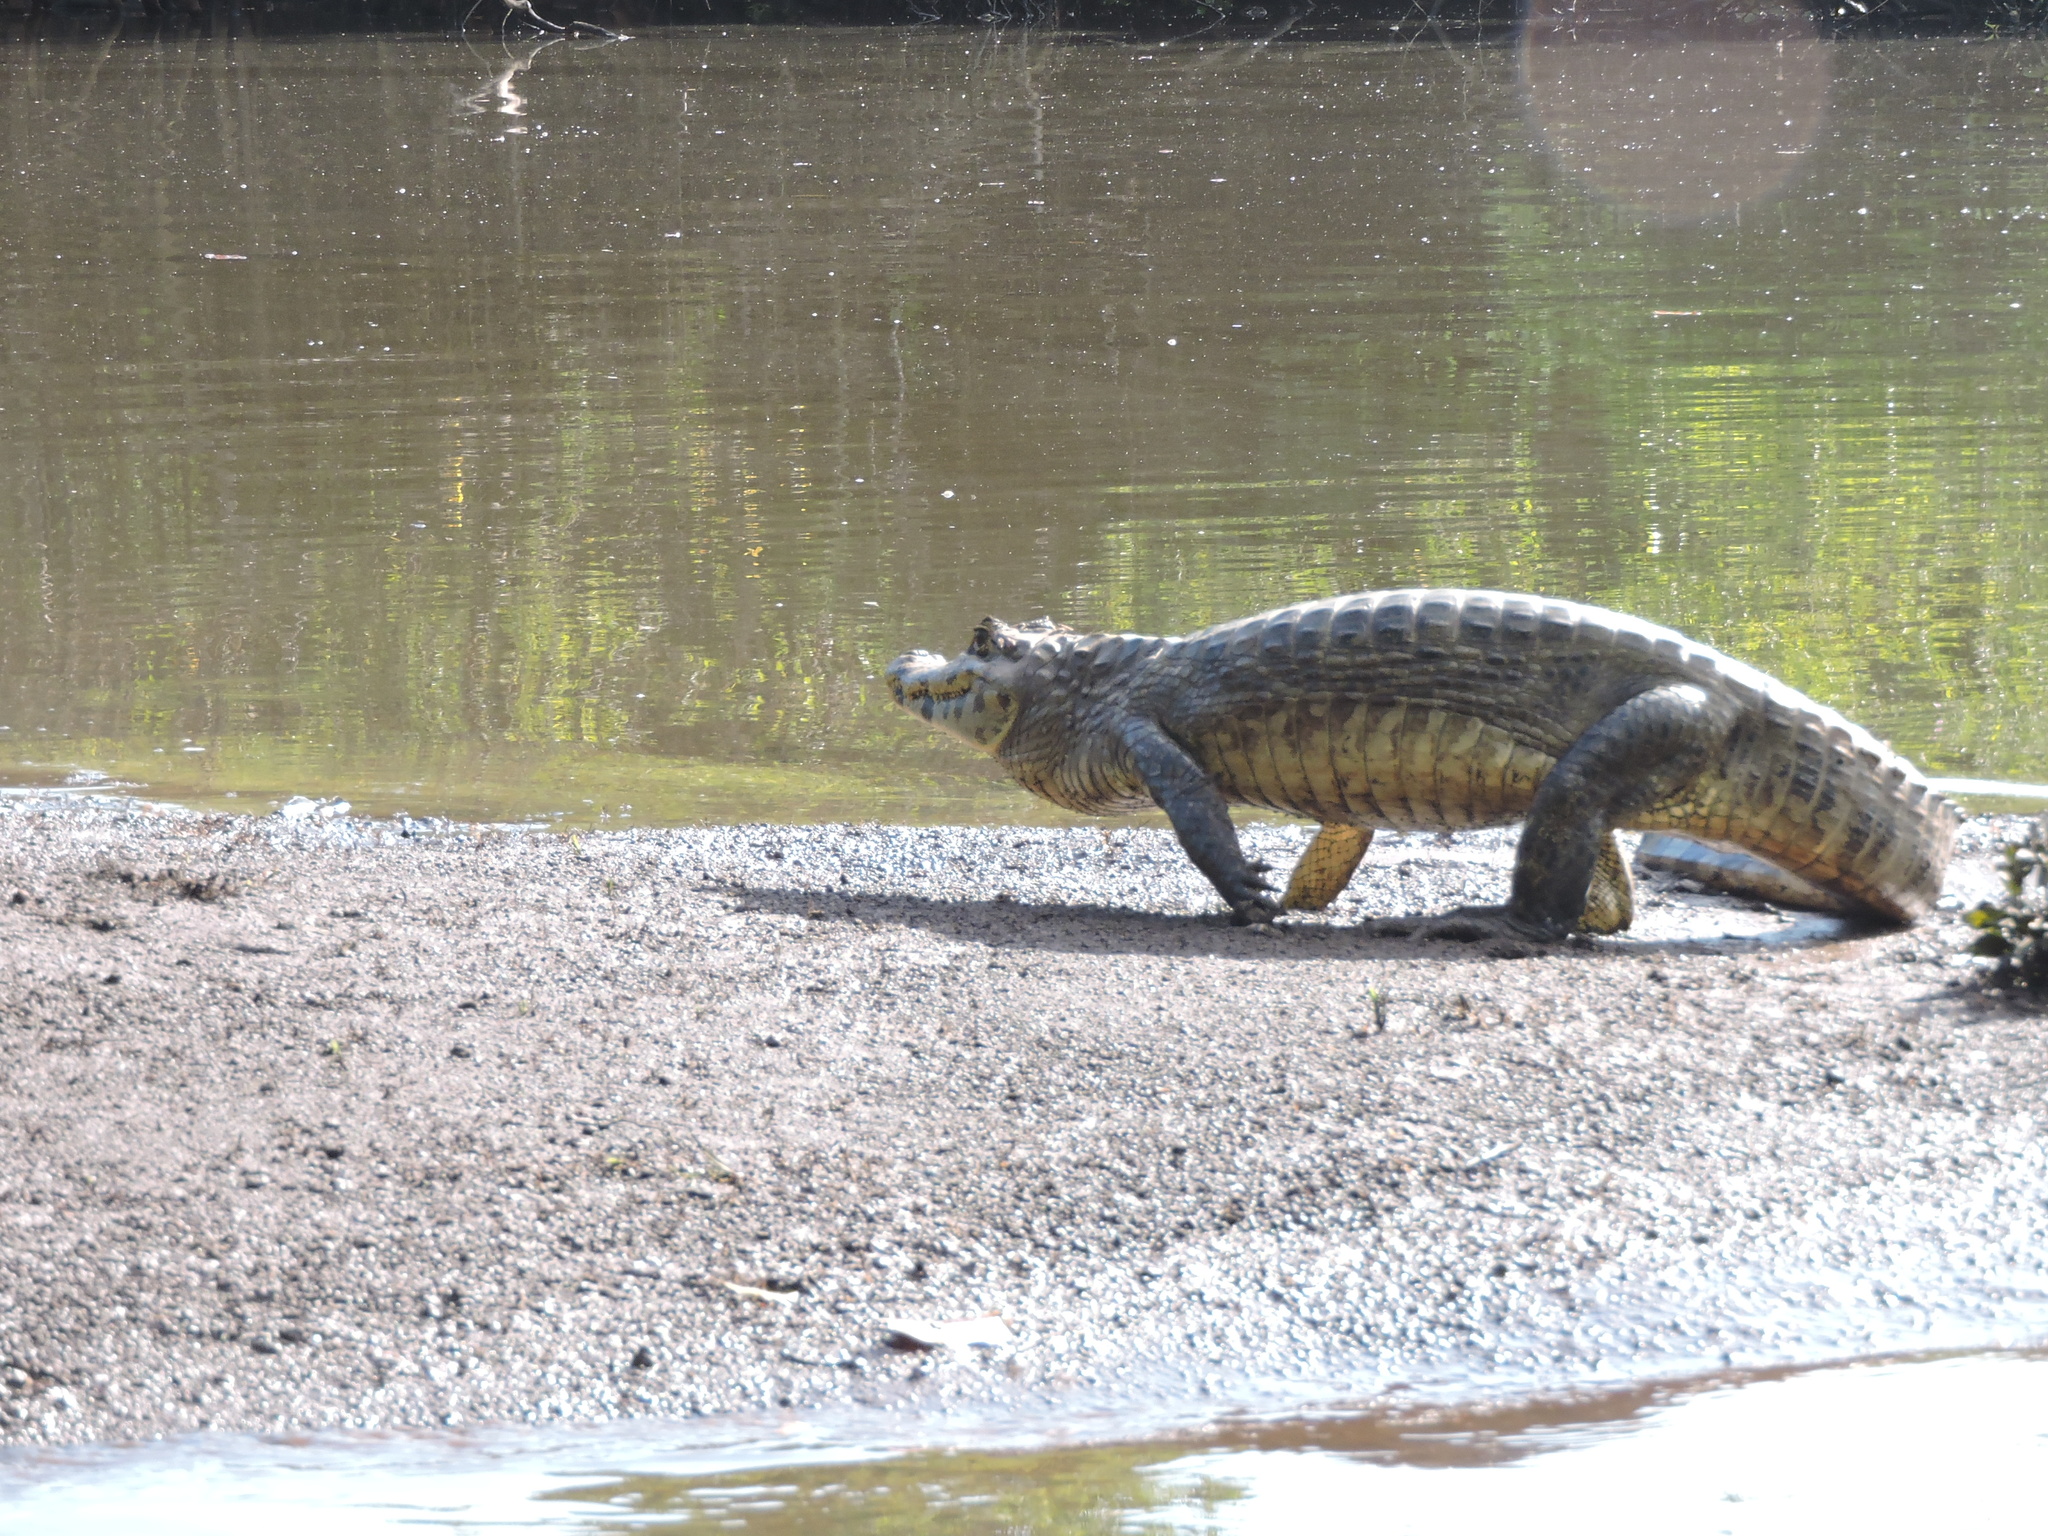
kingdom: Animalia
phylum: Chordata
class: Crocodylia
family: Alligatoridae
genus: Caiman
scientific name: Caiman yacare
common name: Yacare caiman
